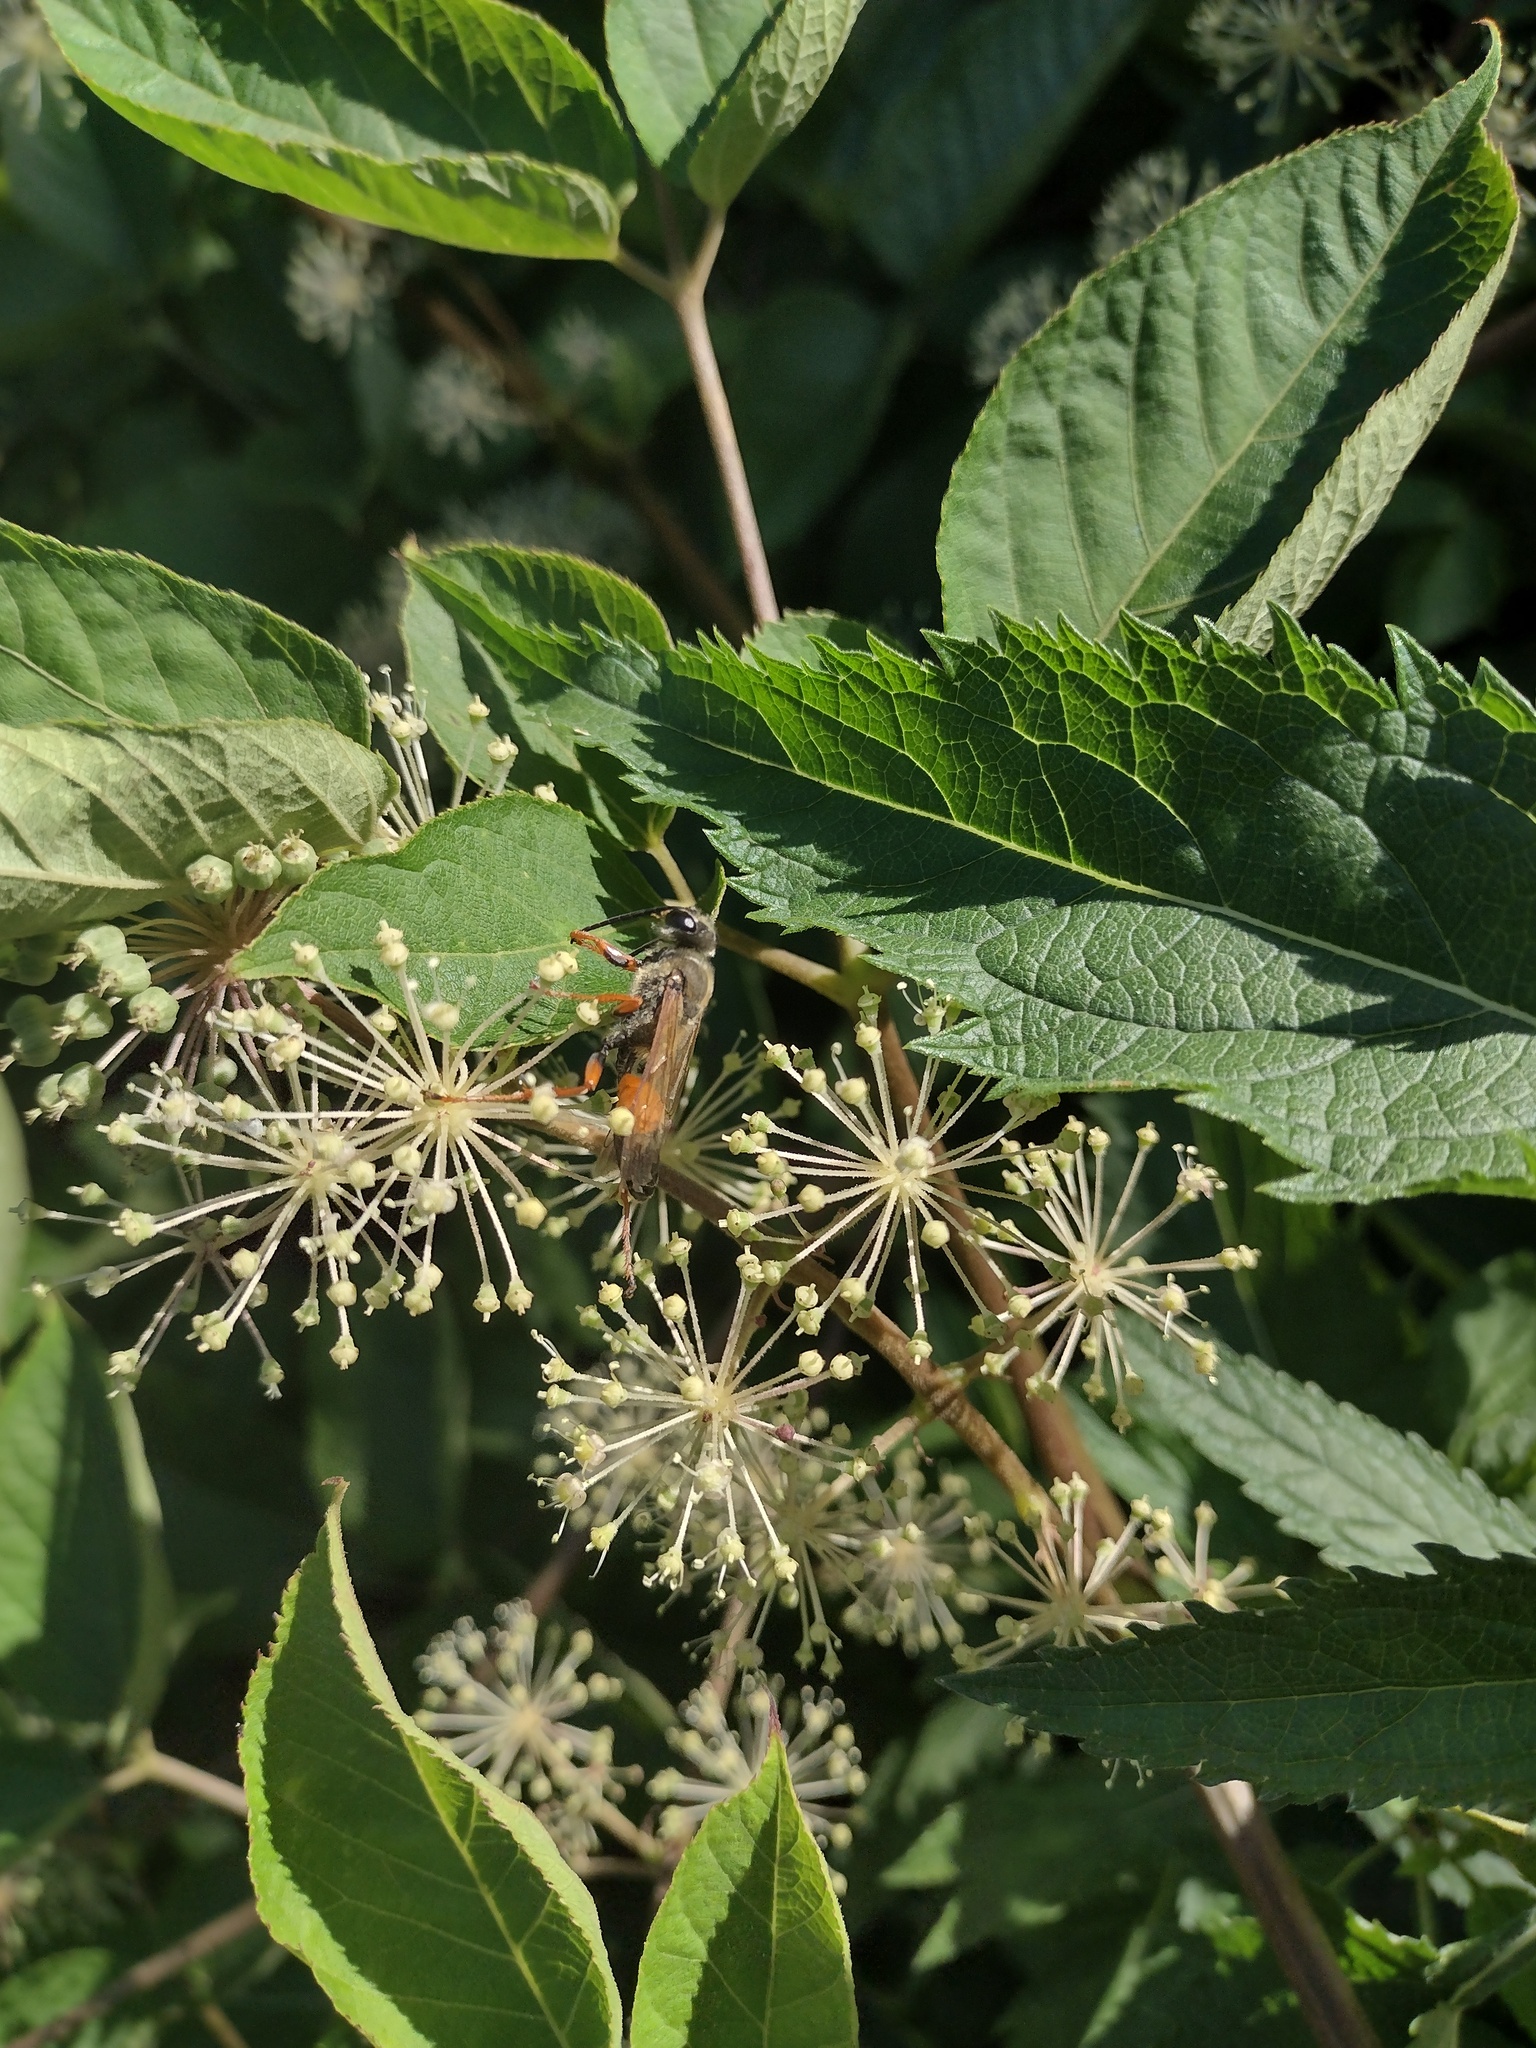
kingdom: Animalia
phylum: Arthropoda
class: Insecta
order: Hymenoptera
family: Sphecidae
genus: Sphex
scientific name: Sphex ichneumoneus
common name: Great golden digger wasp
